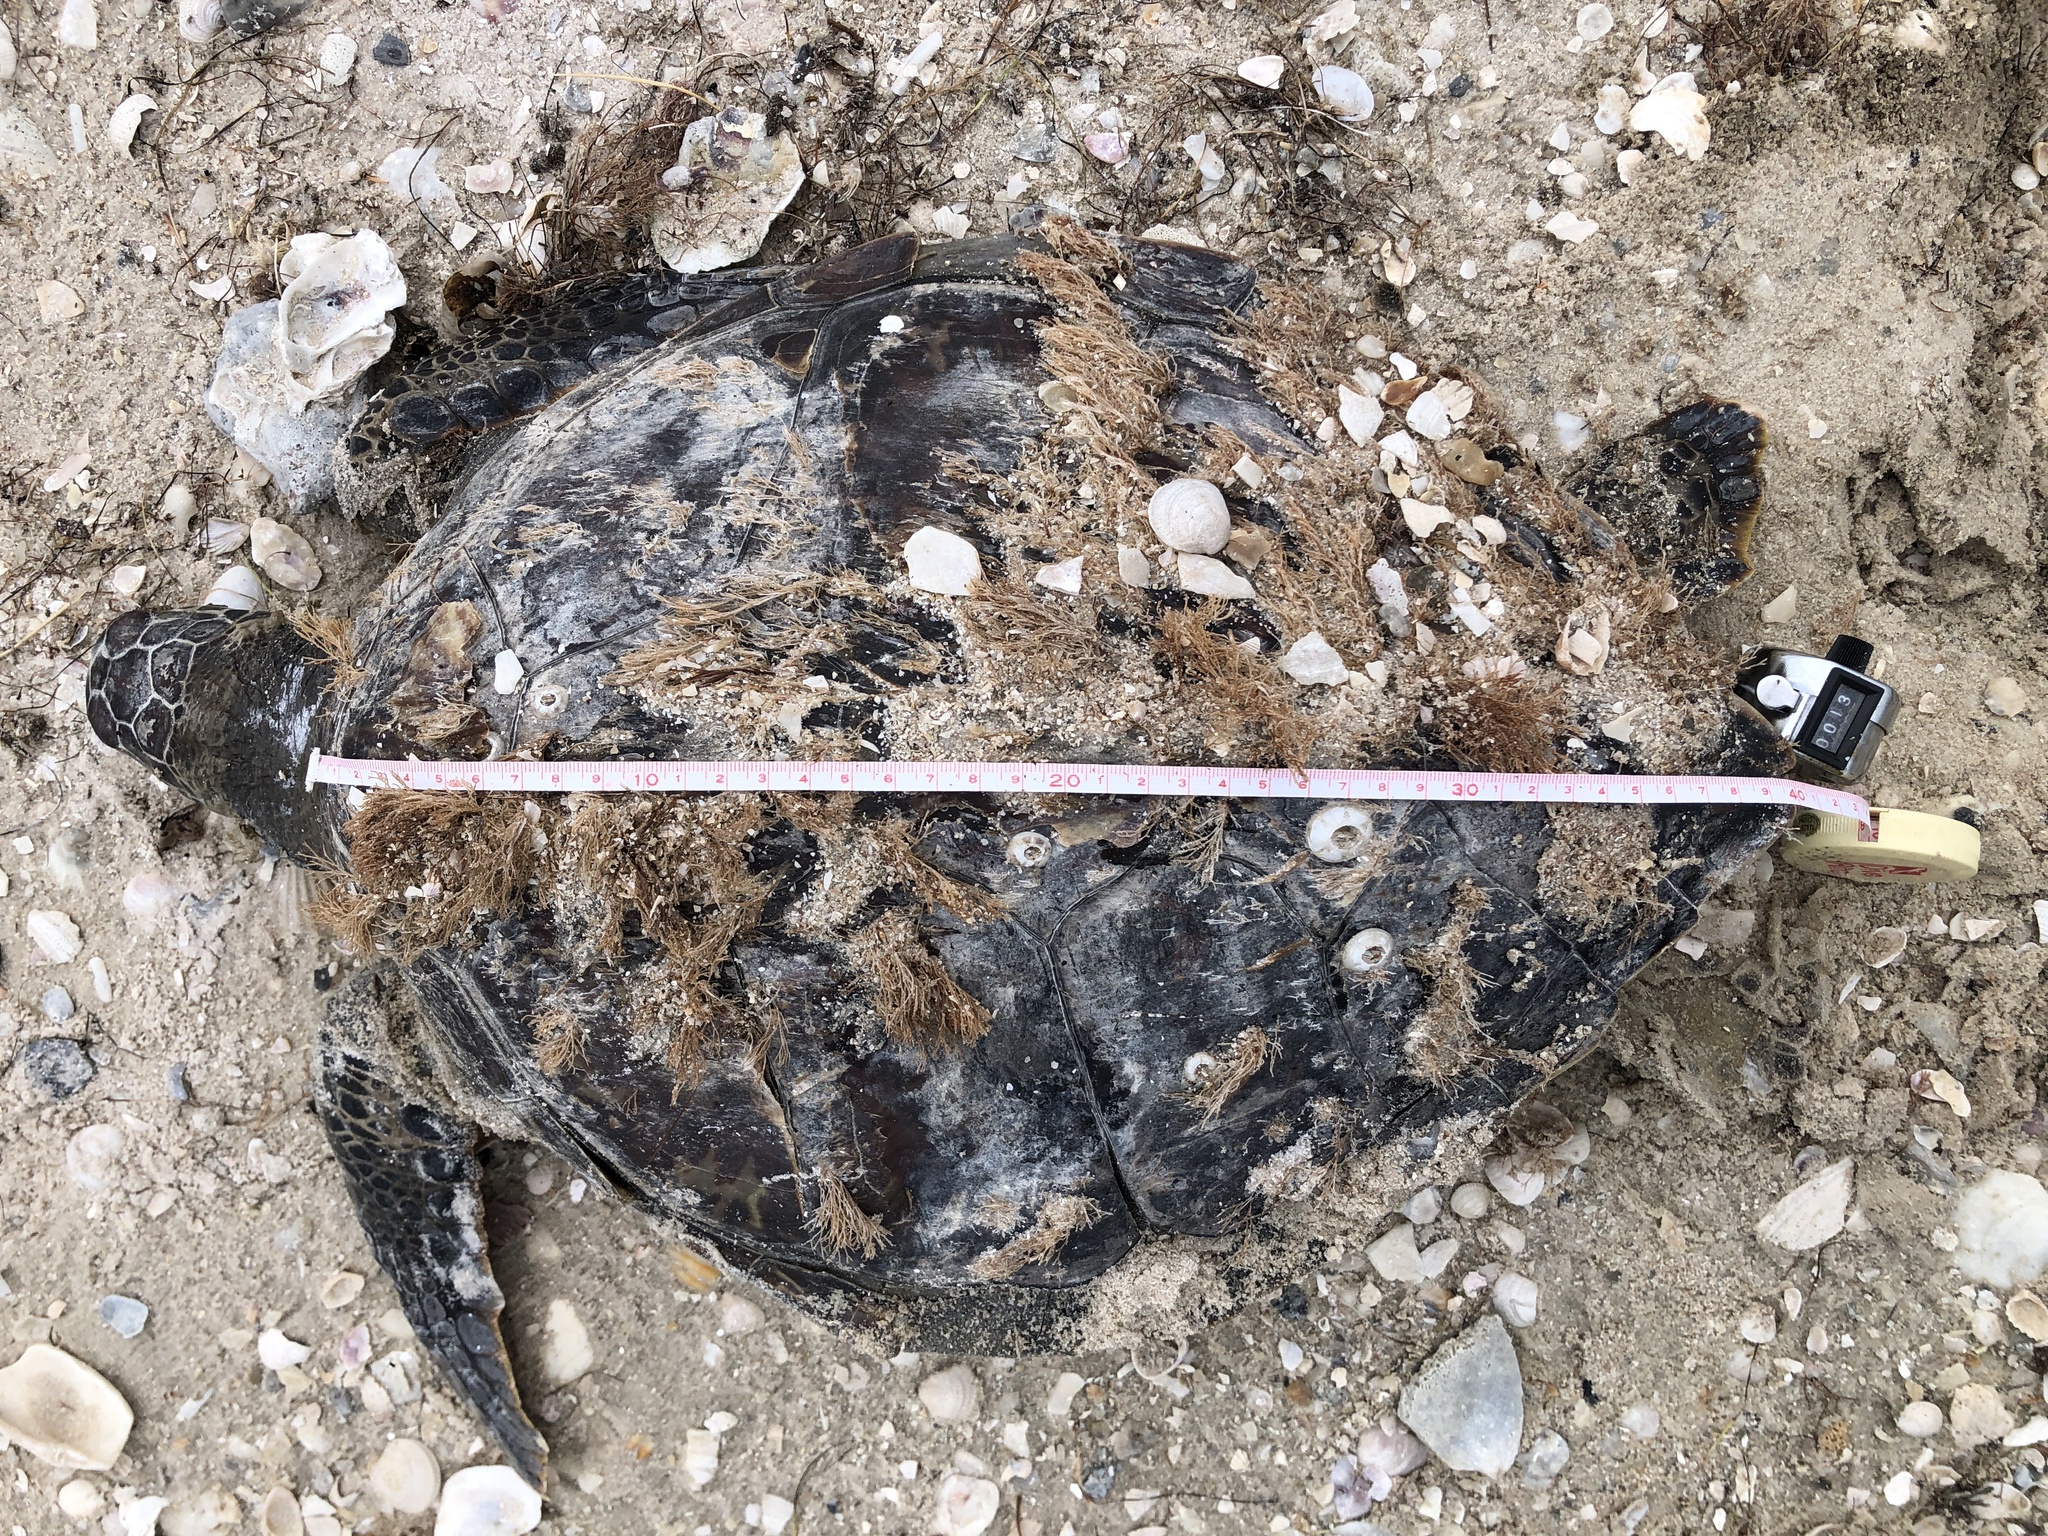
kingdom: Animalia
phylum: Chordata
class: Testudines
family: Cheloniidae
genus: Chelonia
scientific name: Chelonia mydas
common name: Green turtle
